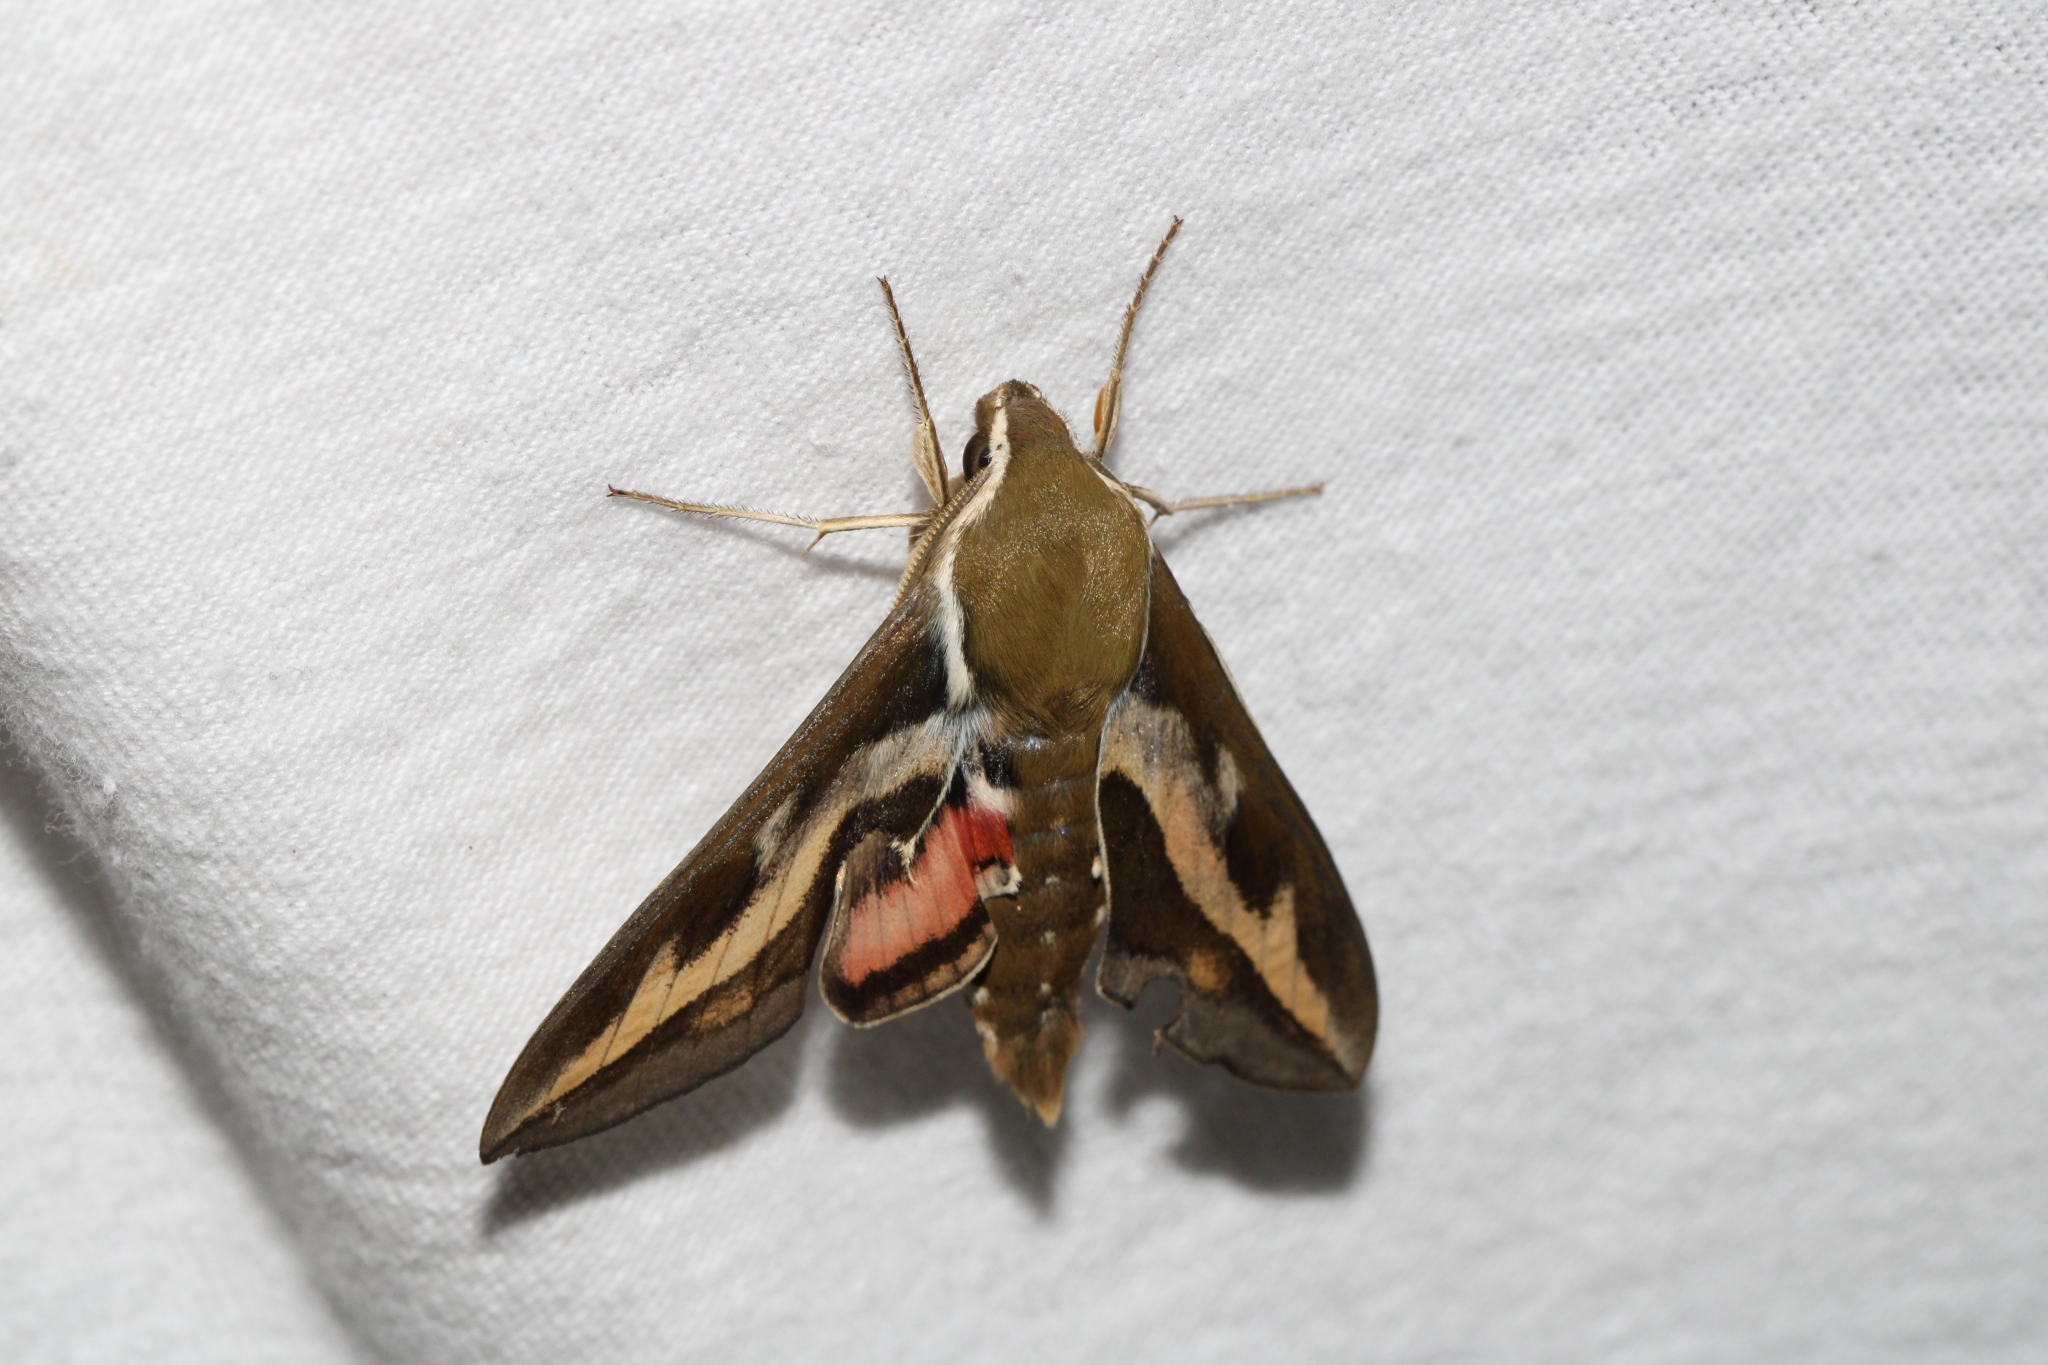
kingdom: Animalia
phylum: Arthropoda
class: Insecta
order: Lepidoptera
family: Sphingidae
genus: Hyles
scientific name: Hyles gallii
